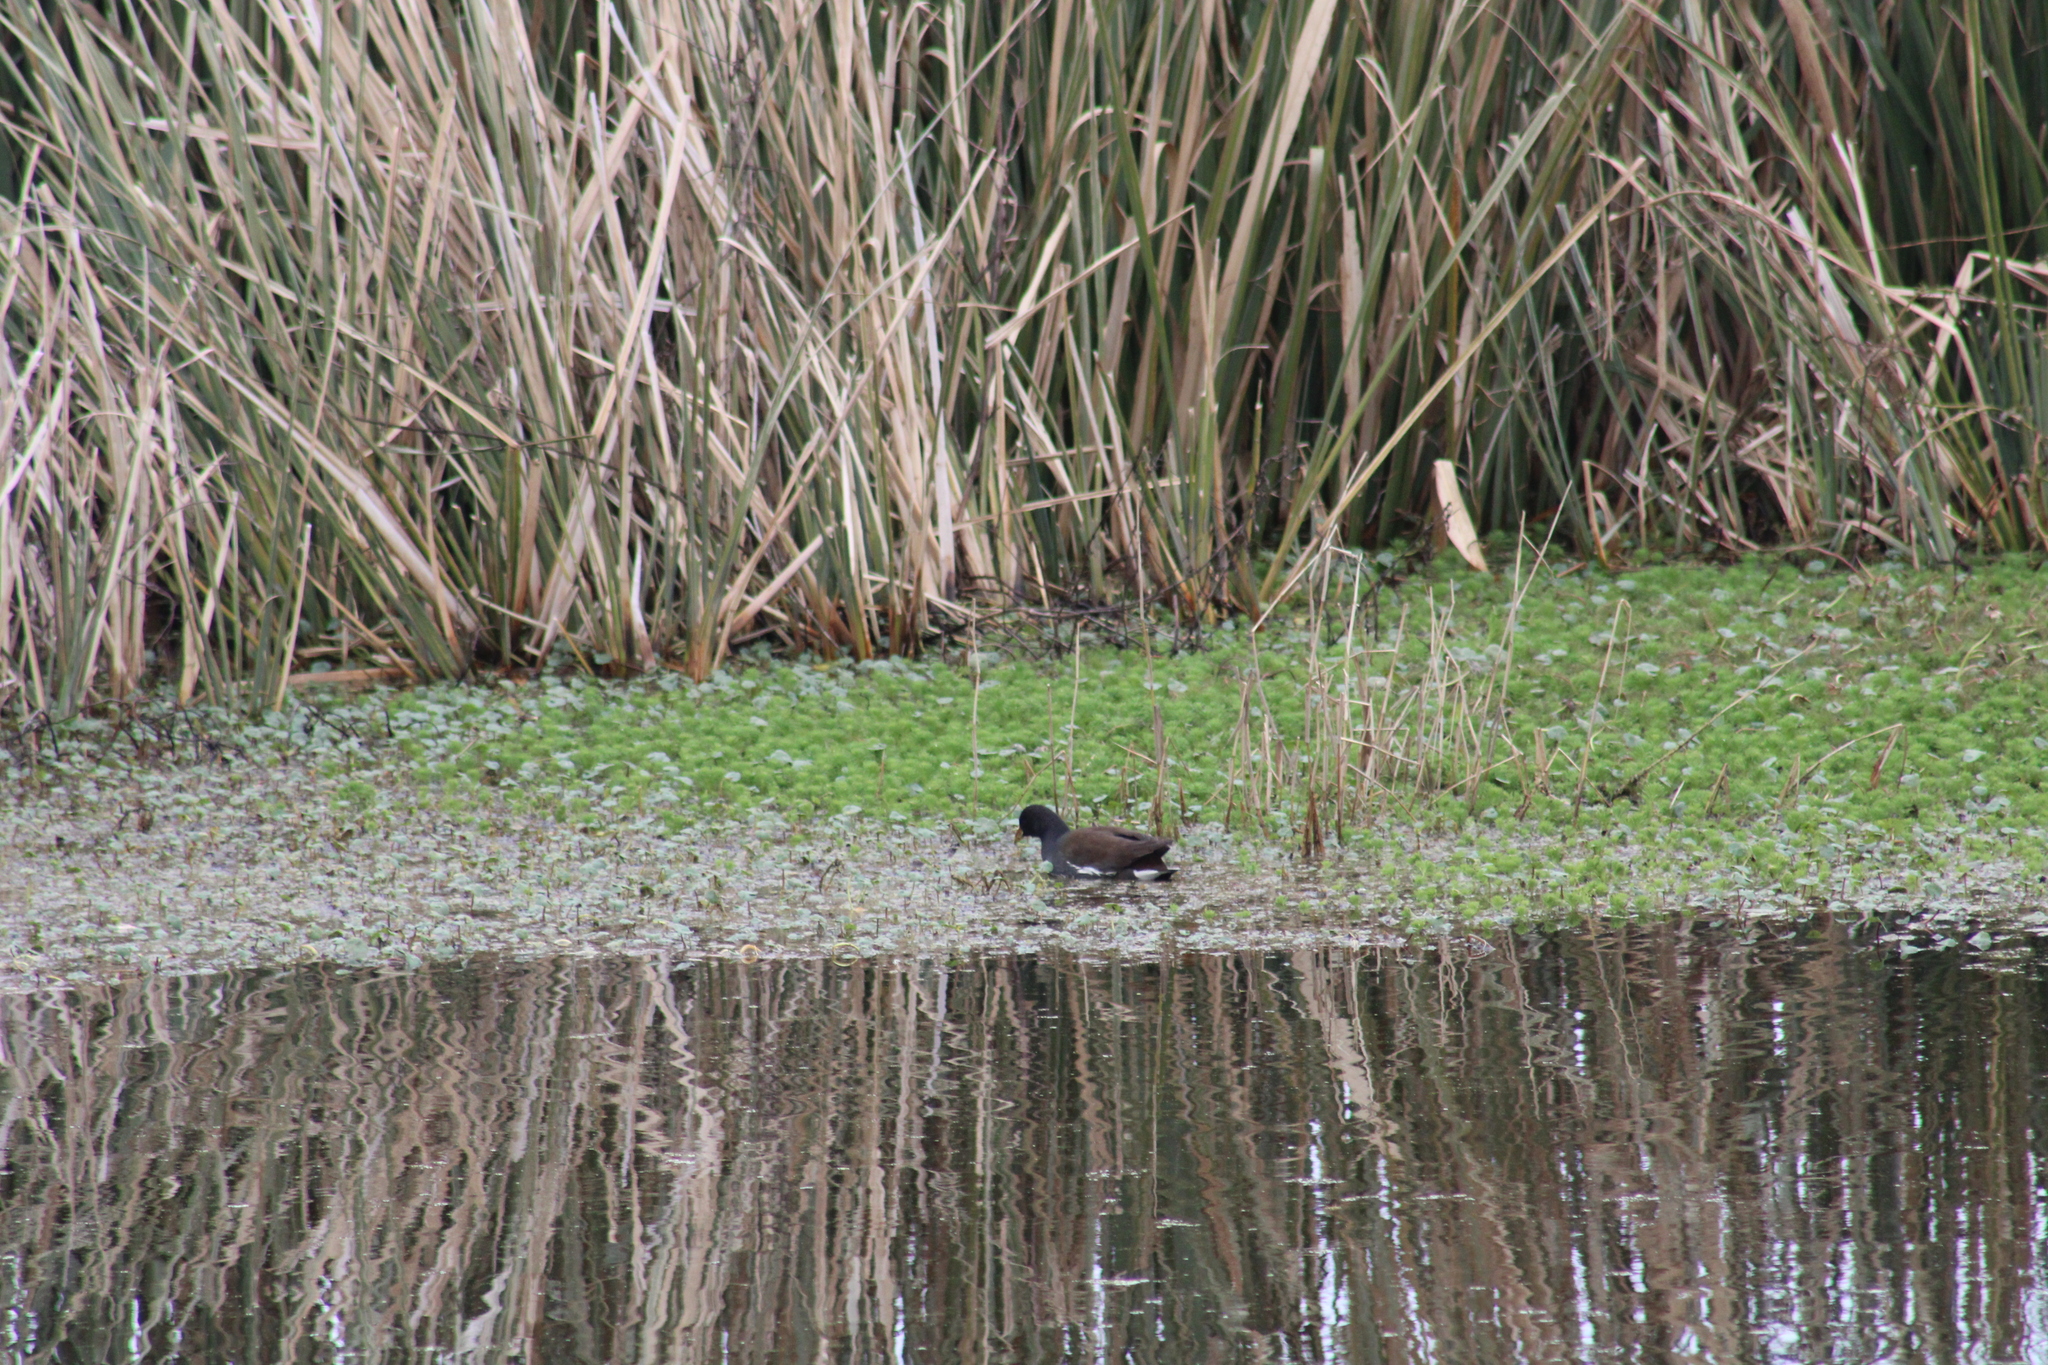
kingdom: Animalia
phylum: Chordata
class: Aves
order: Gruiformes
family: Rallidae
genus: Gallinula
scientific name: Gallinula chloropus
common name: Common moorhen
